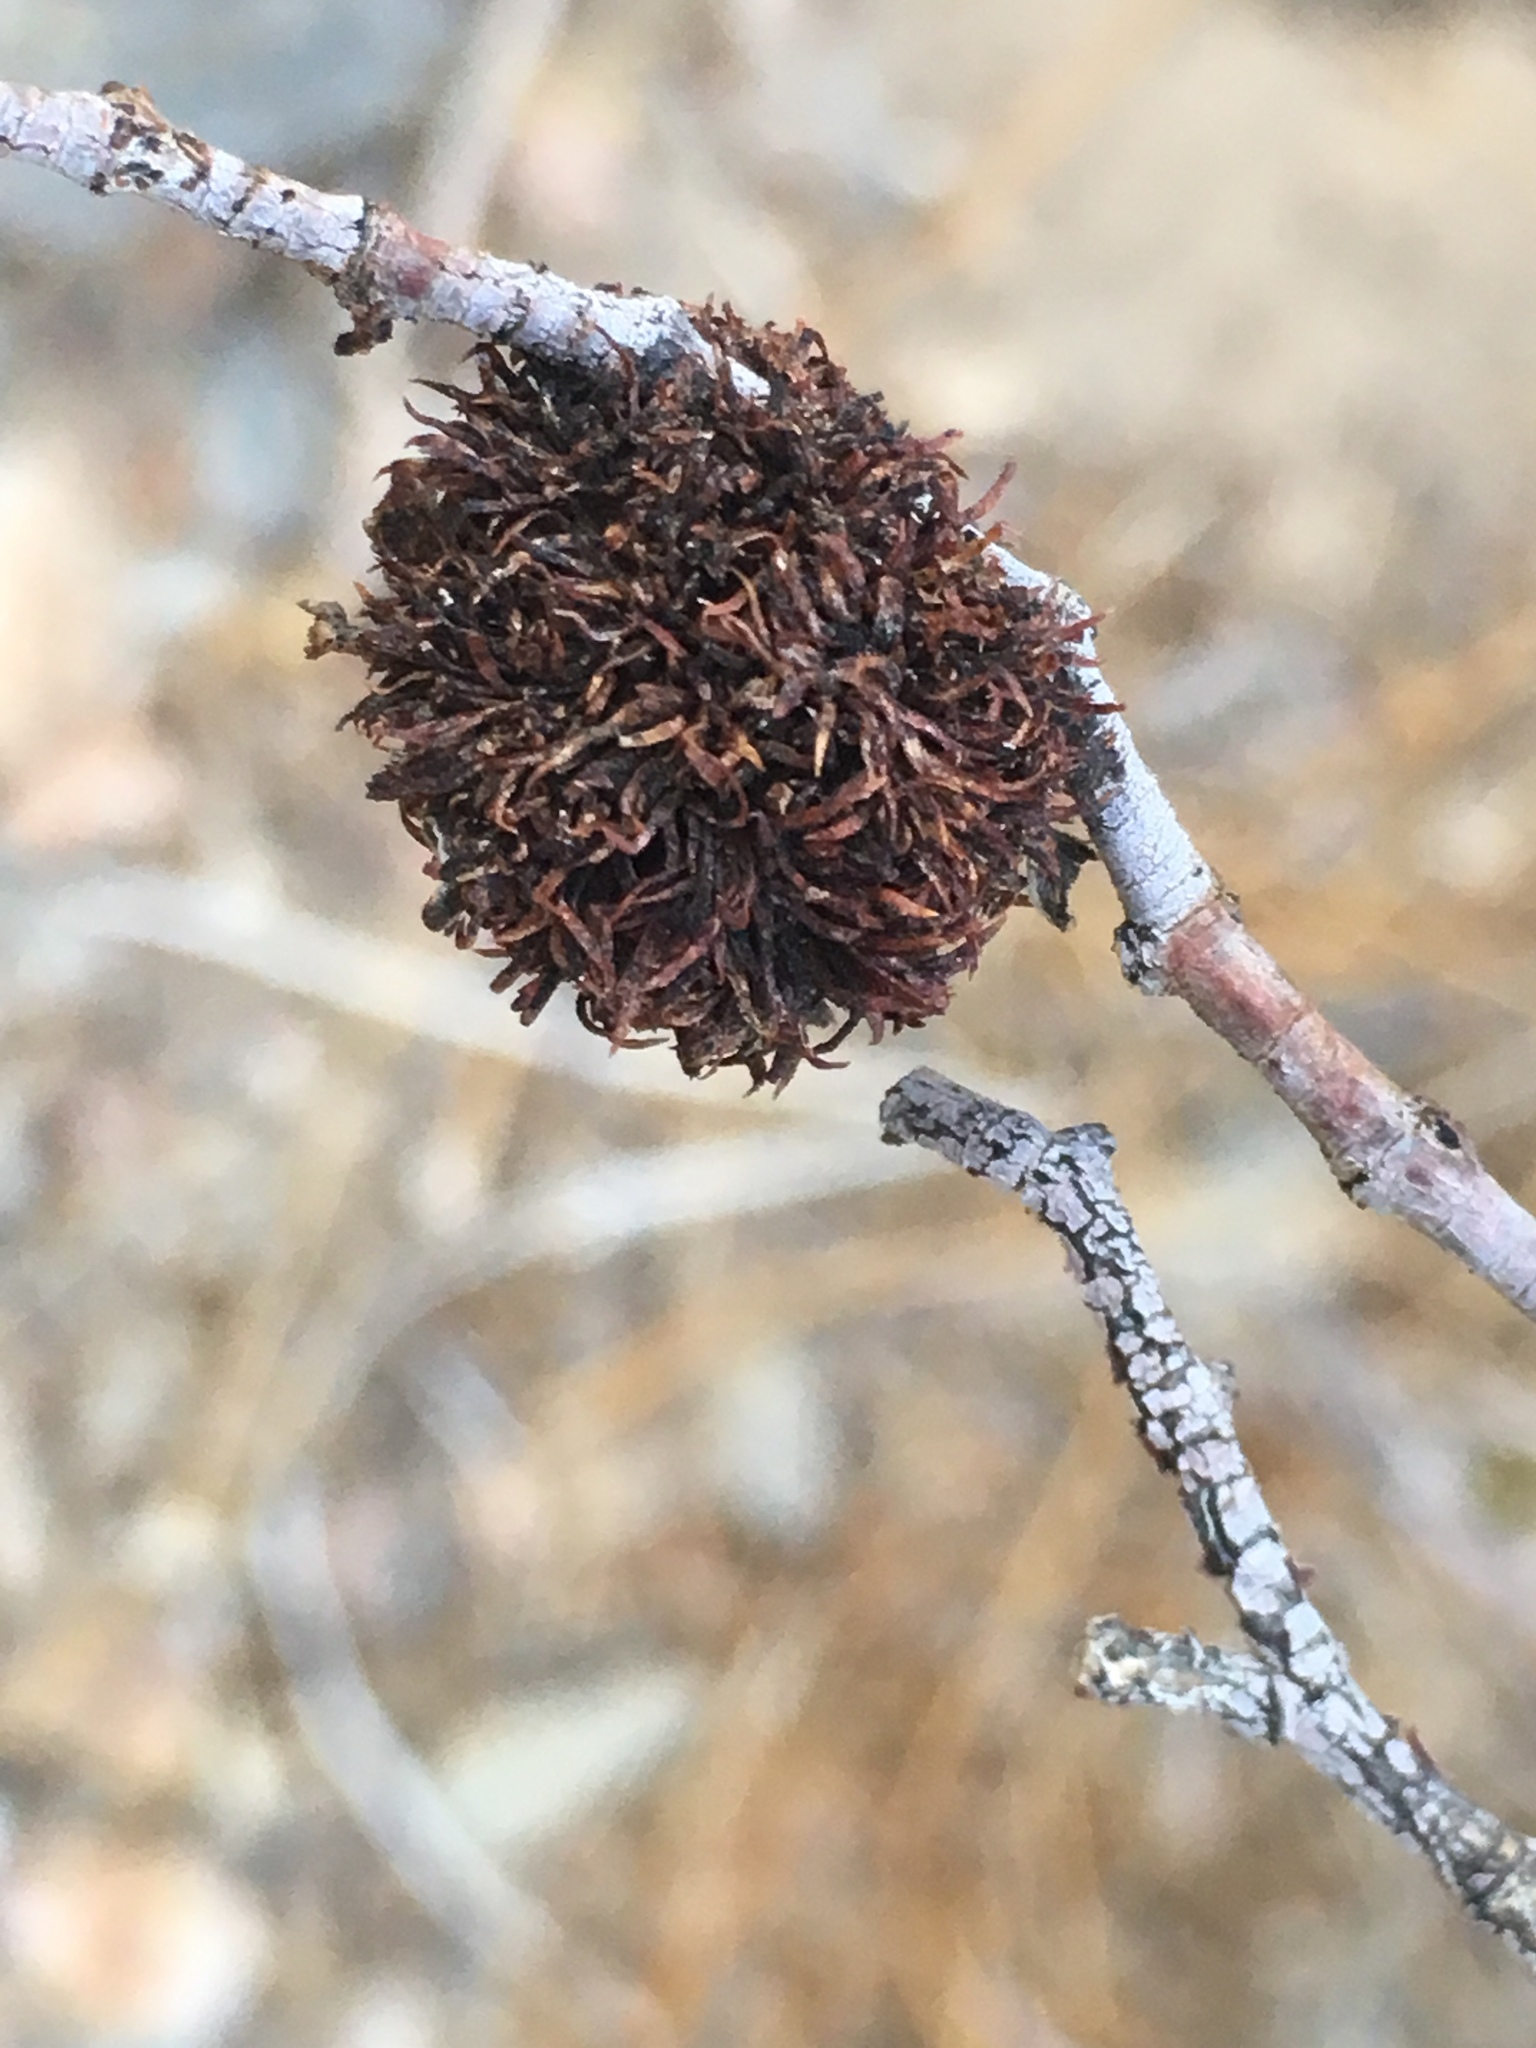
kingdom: Animalia
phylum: Arthropoda
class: Insecta
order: Diptera
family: Cecidomyiidae
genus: Asphondylia
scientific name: Asphondylia auripila
